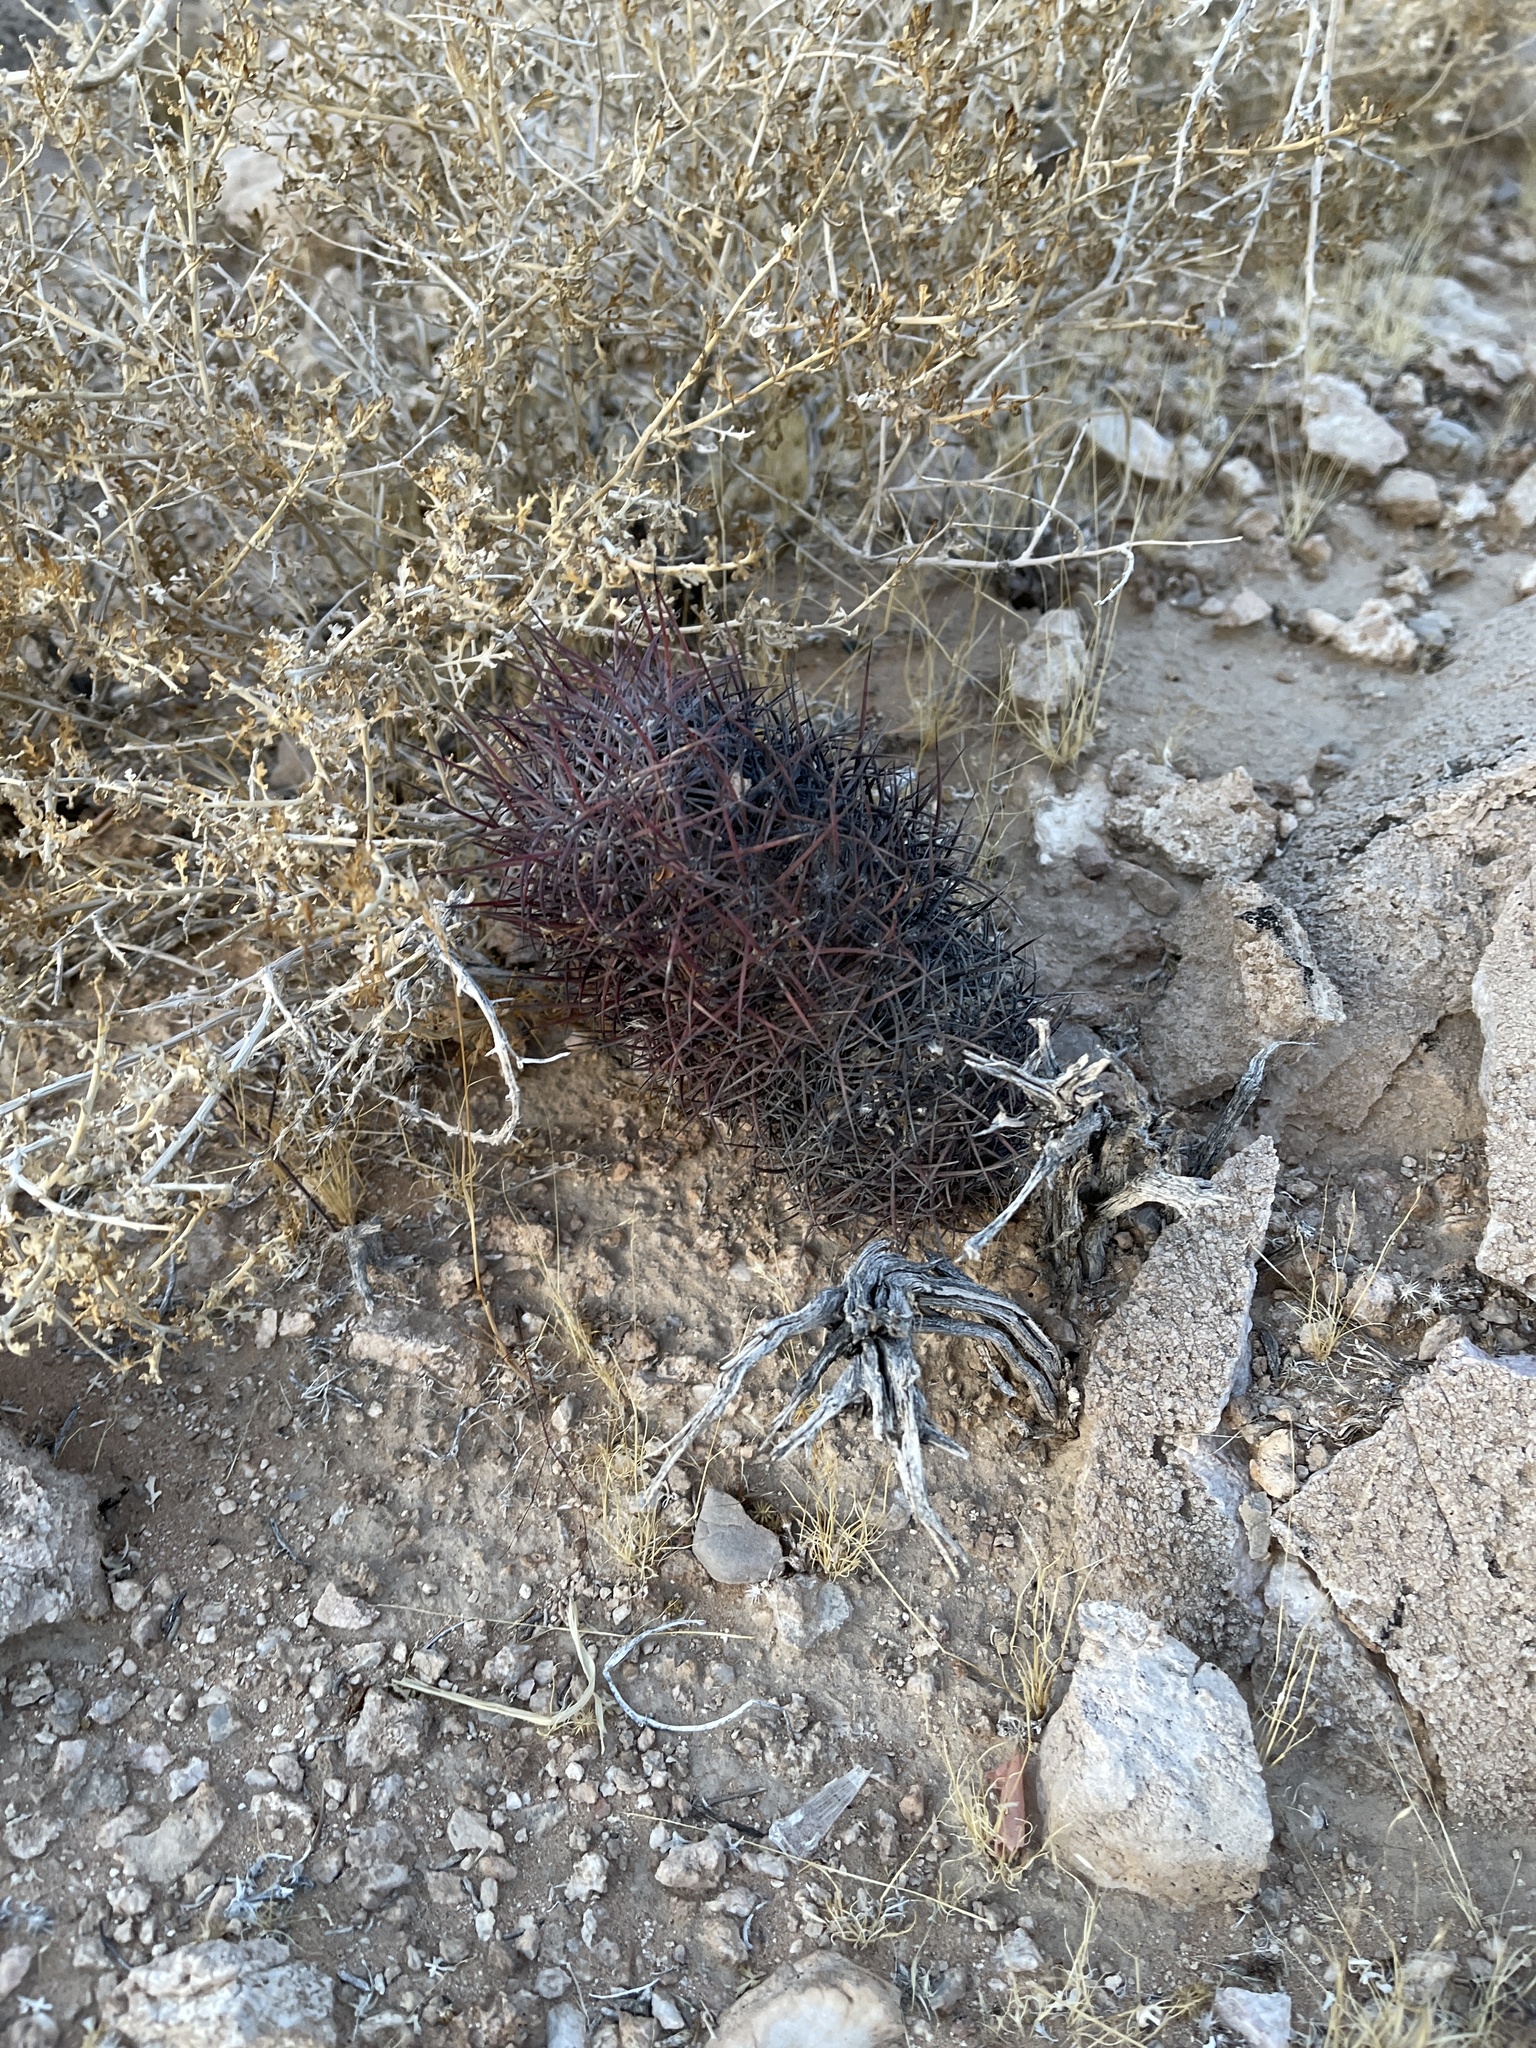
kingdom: Plantae
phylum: Tracheophyta
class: Magnoliopsida
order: Caryophyllales
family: Cactaceae
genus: Sclerocactus
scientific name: Sclerocactus johnsonii
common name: Eight-spine fishhook cactus
